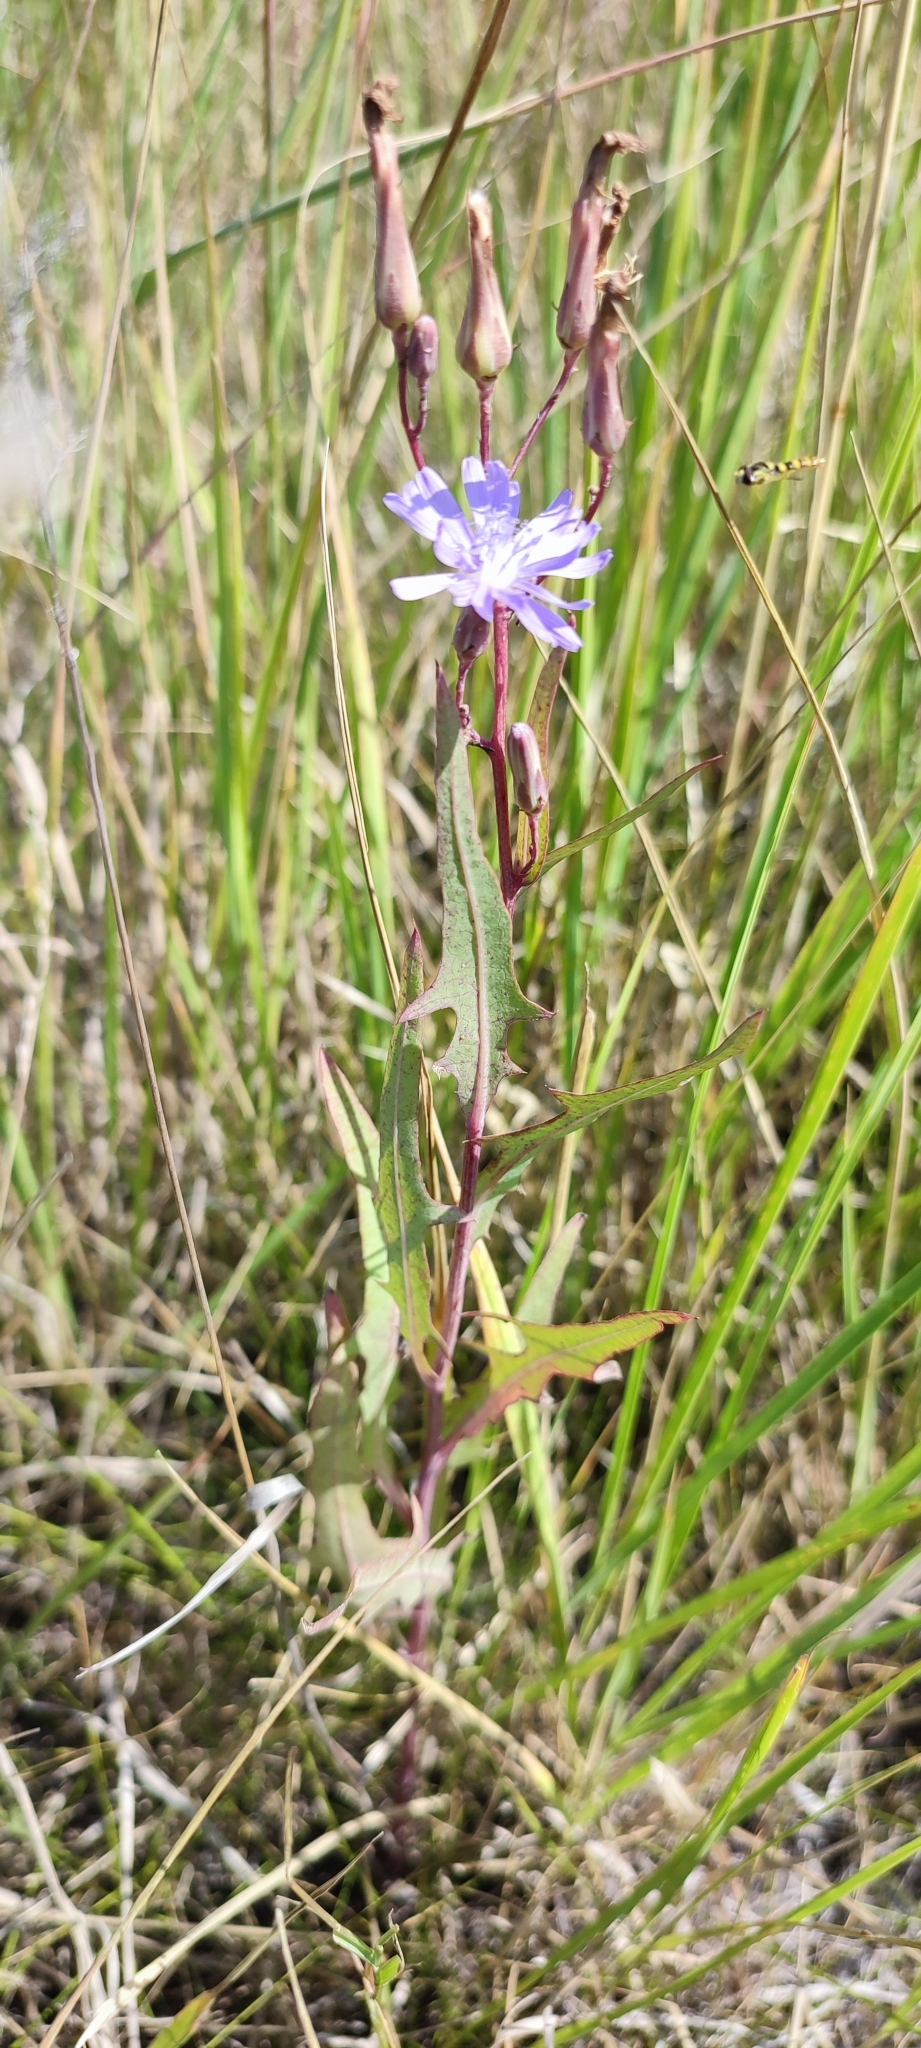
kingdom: Plantae
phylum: Tracheophyta
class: Magnoliopsida
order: Asterales
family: Asteraceae
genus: Lactuca
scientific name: Lactuca tatarica
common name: Blue lettuce
